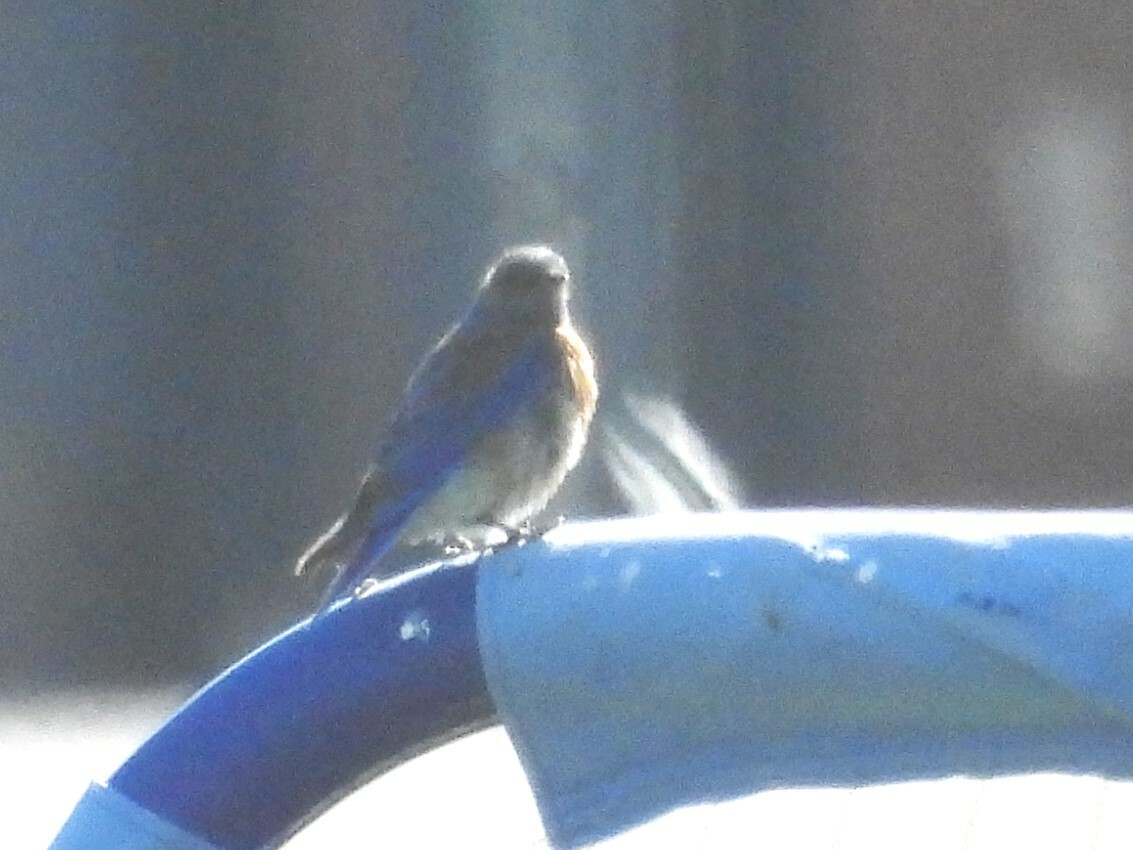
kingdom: Animalia
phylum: Chordata
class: Aves
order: Passeriformes
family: Turdidae
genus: Sialia
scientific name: Sialia mexicana
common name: Western bluebird
